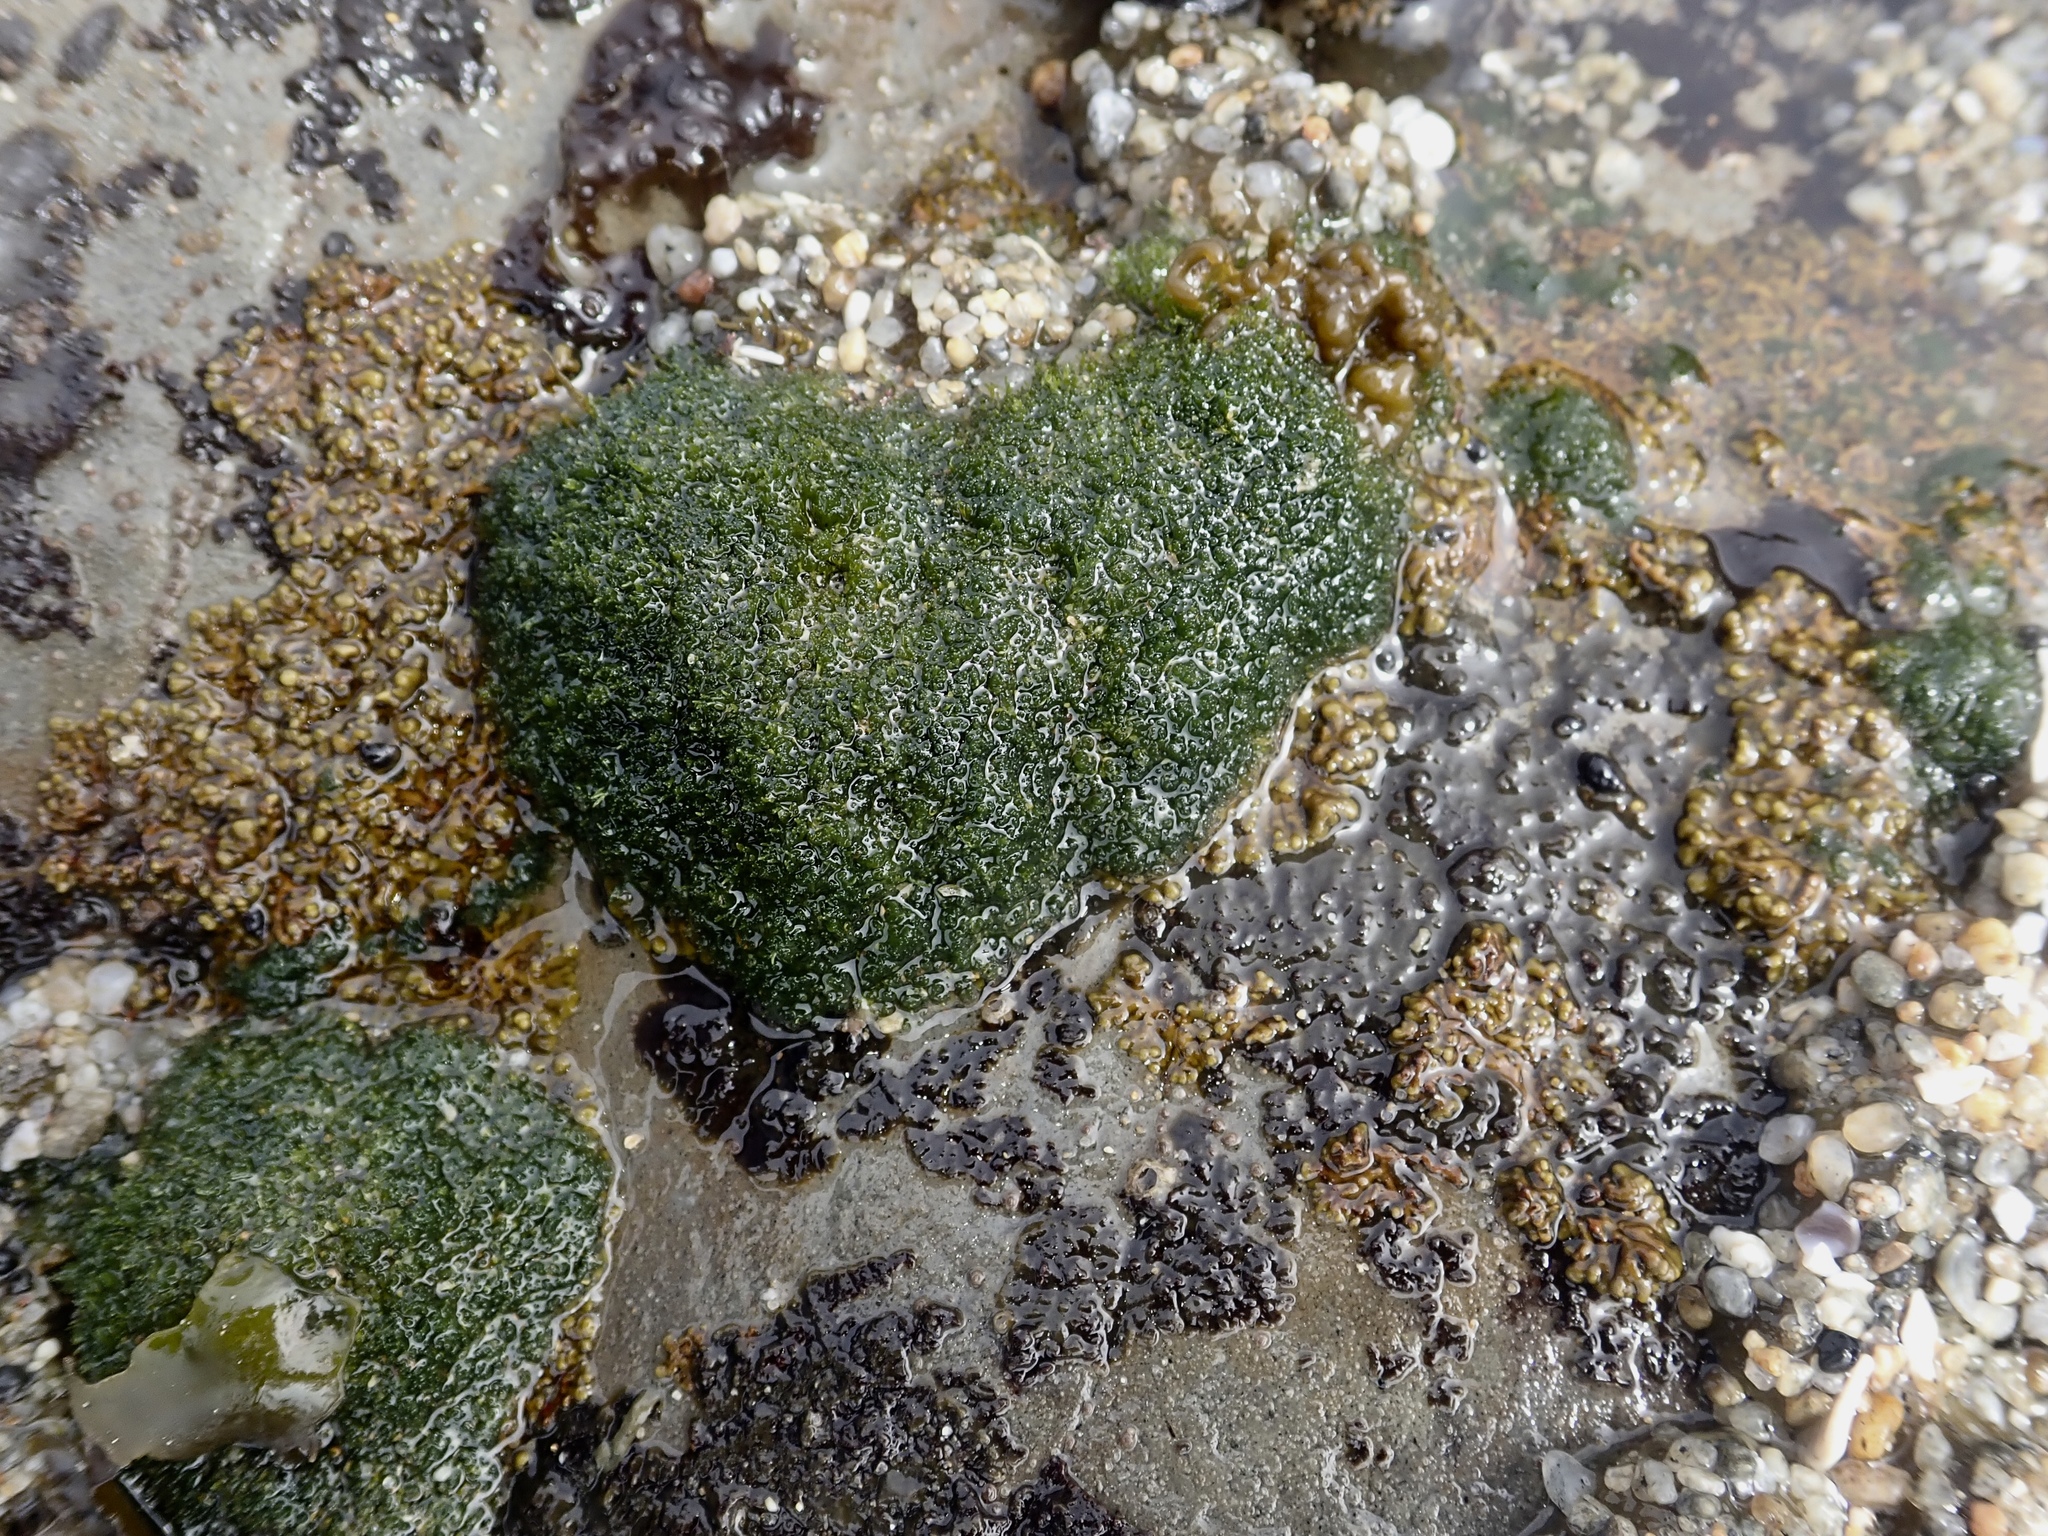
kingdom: Plantae
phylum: Chlorophyta
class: Ulvophyceae
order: Cladophorales
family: Cladophoraceae
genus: Cladophora
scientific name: Cladophora columbiana
